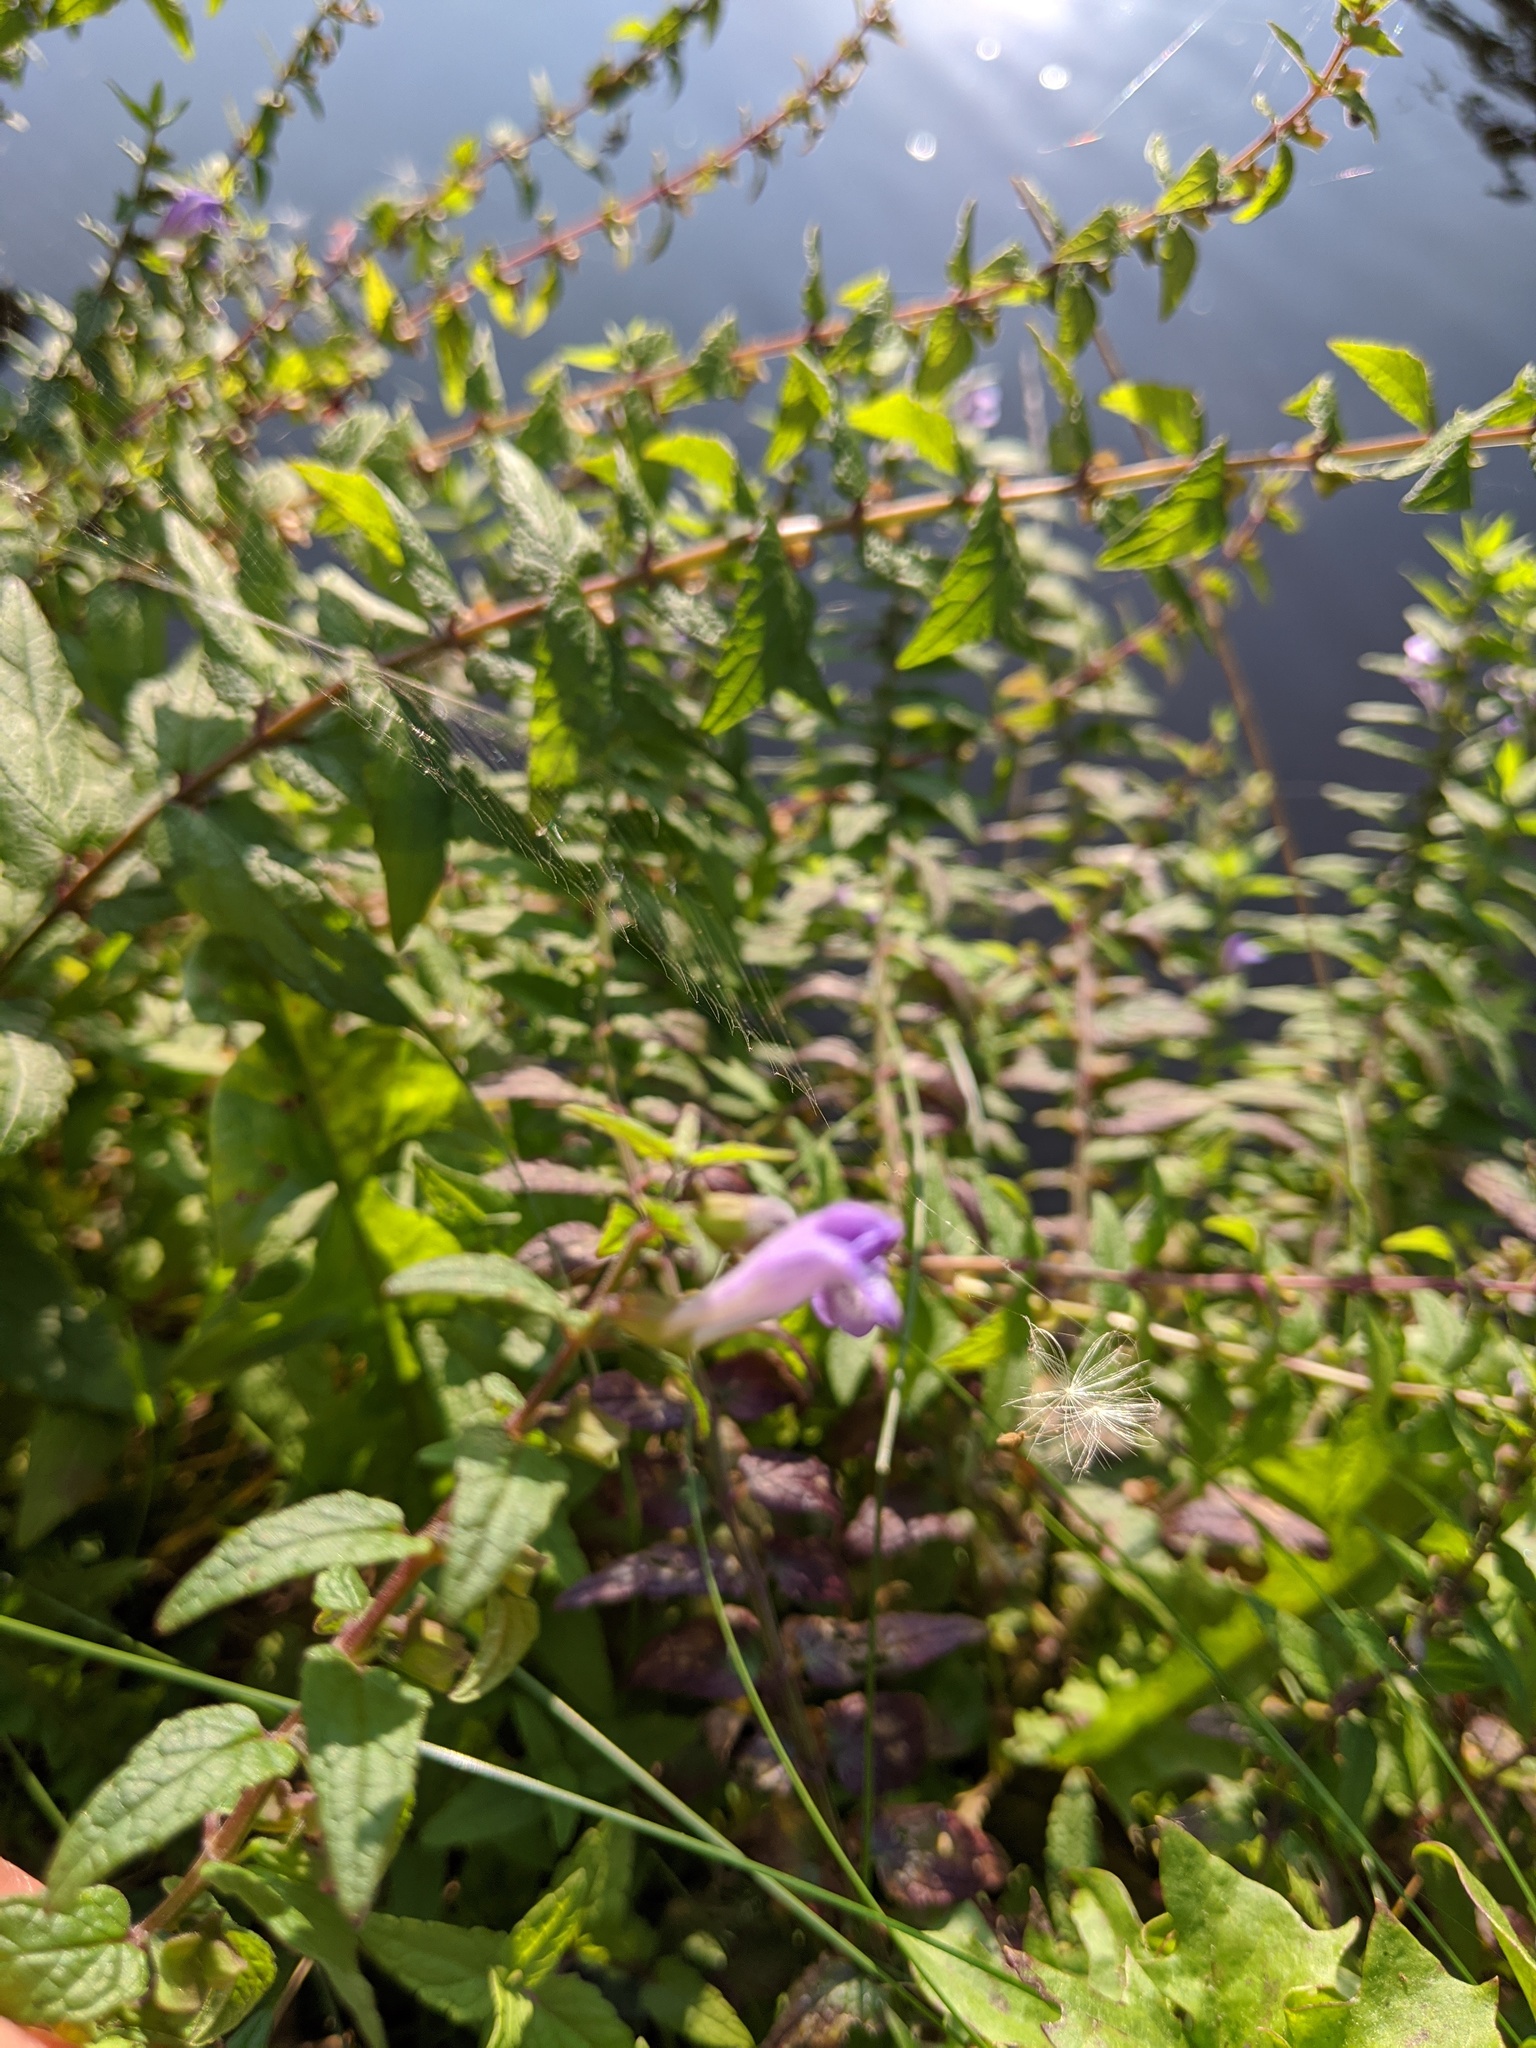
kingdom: Plantae
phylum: Tracheophyta
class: Magnoliopsida
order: Lamiales
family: Lamiaceae
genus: Scutellaria
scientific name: Scutellaria galericulata
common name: Skullcap
